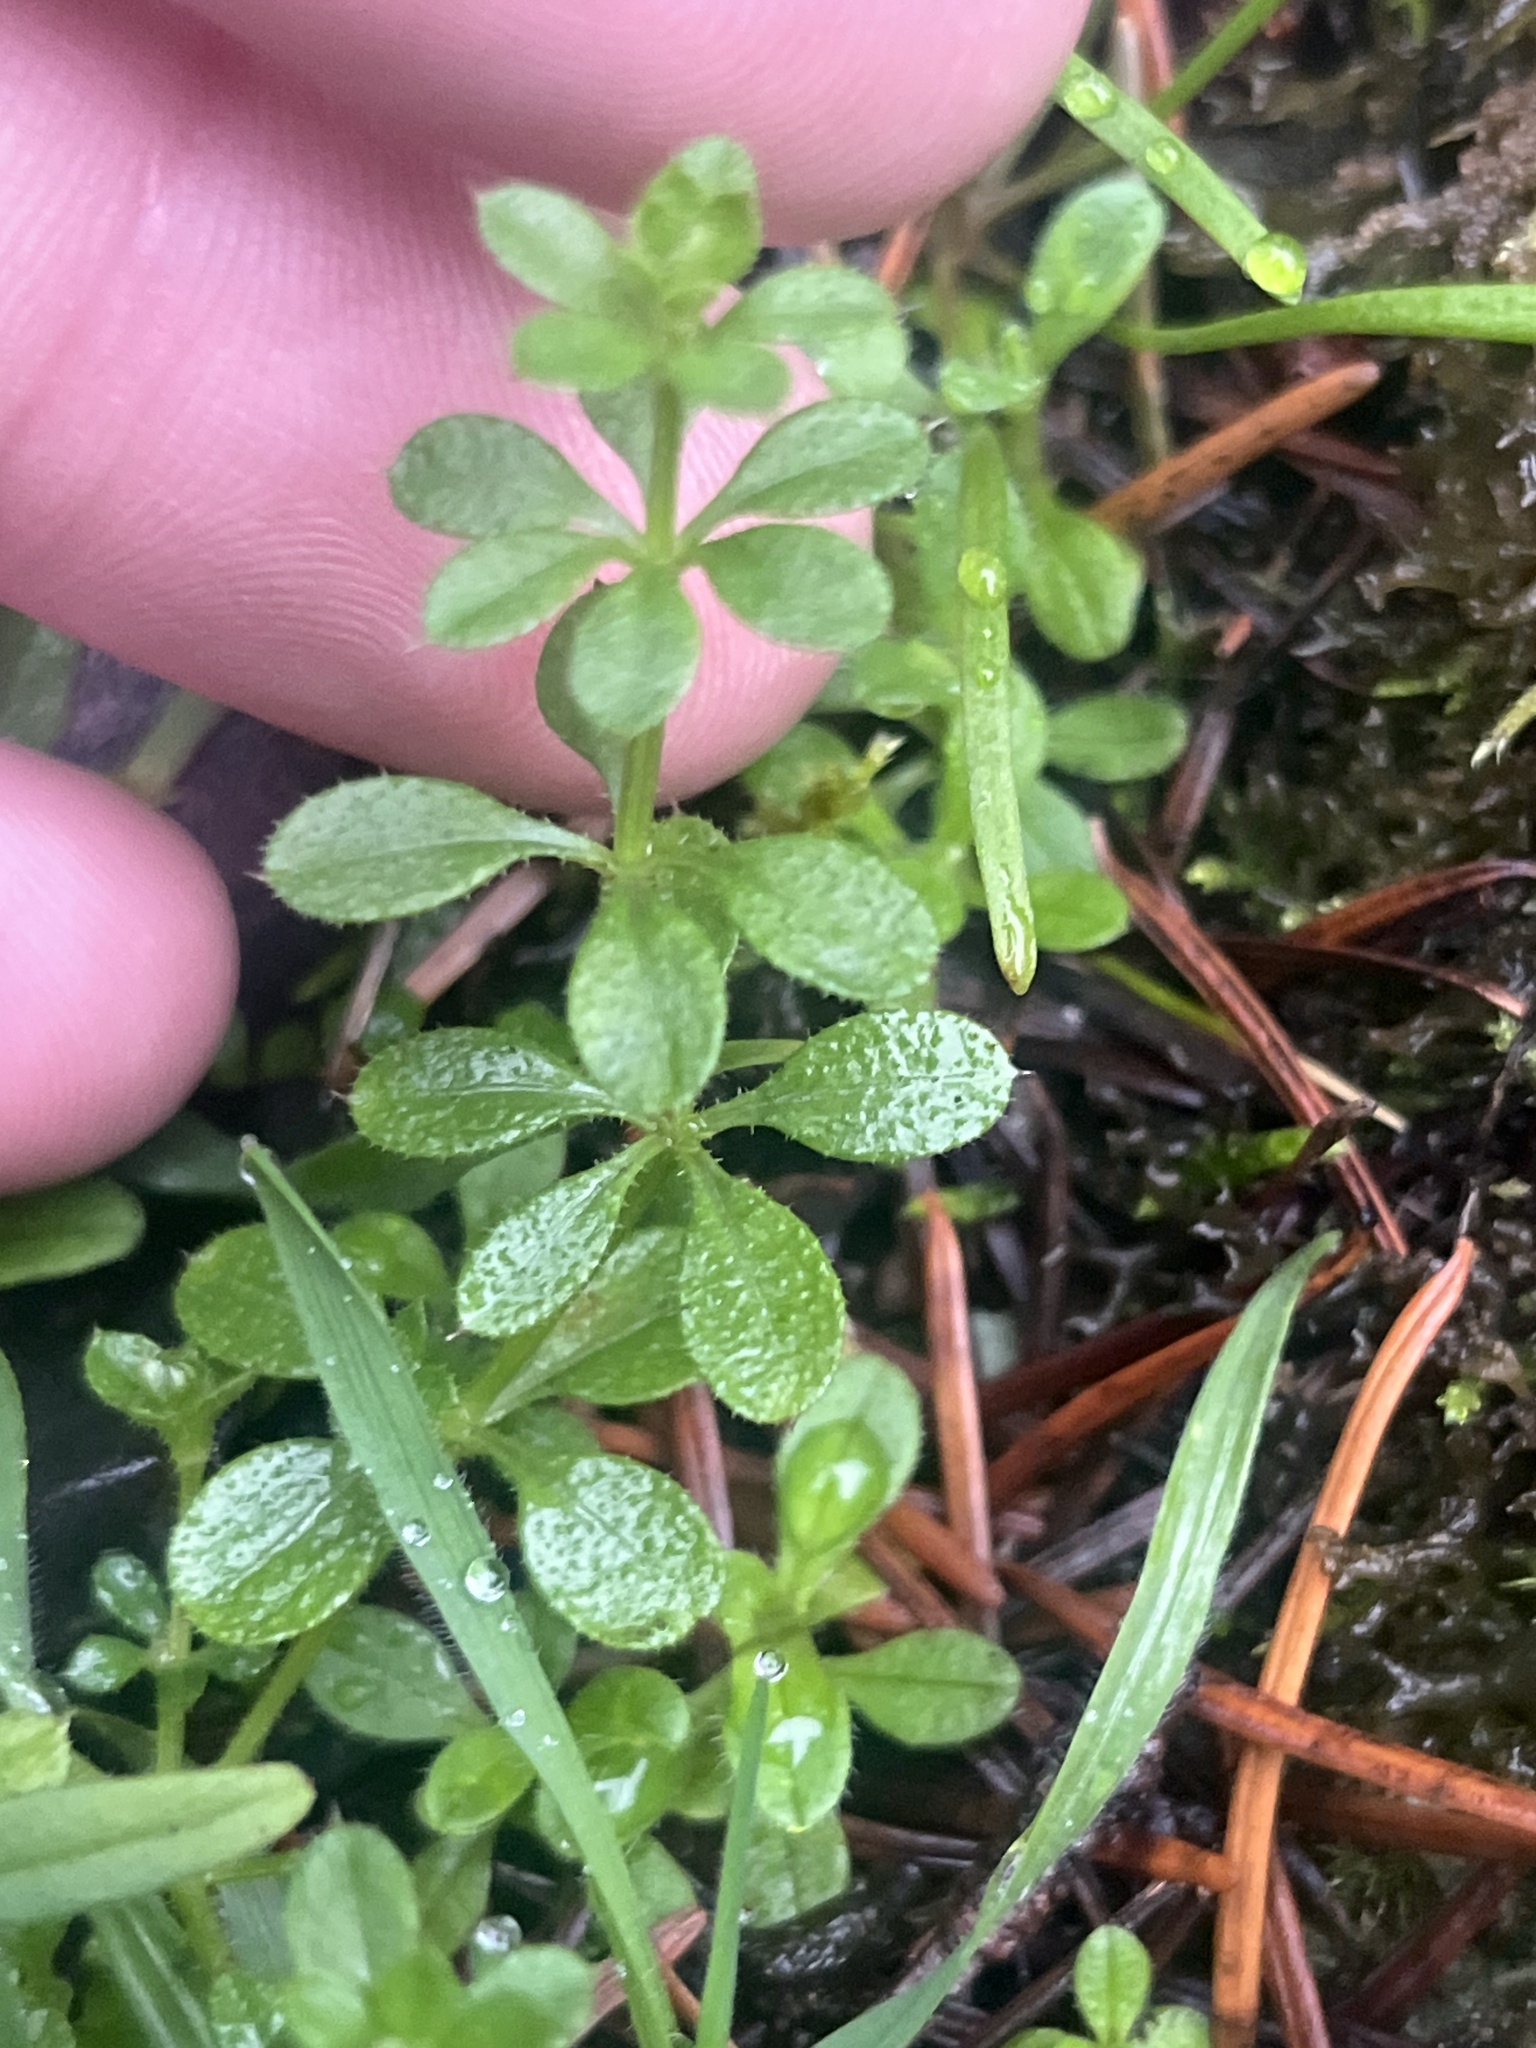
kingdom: Plantae
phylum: Tracheophyta
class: Magnoliopsida
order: Gentianales
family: Rubiaceae
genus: Galium
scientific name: Galium aparine
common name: Cleavers
